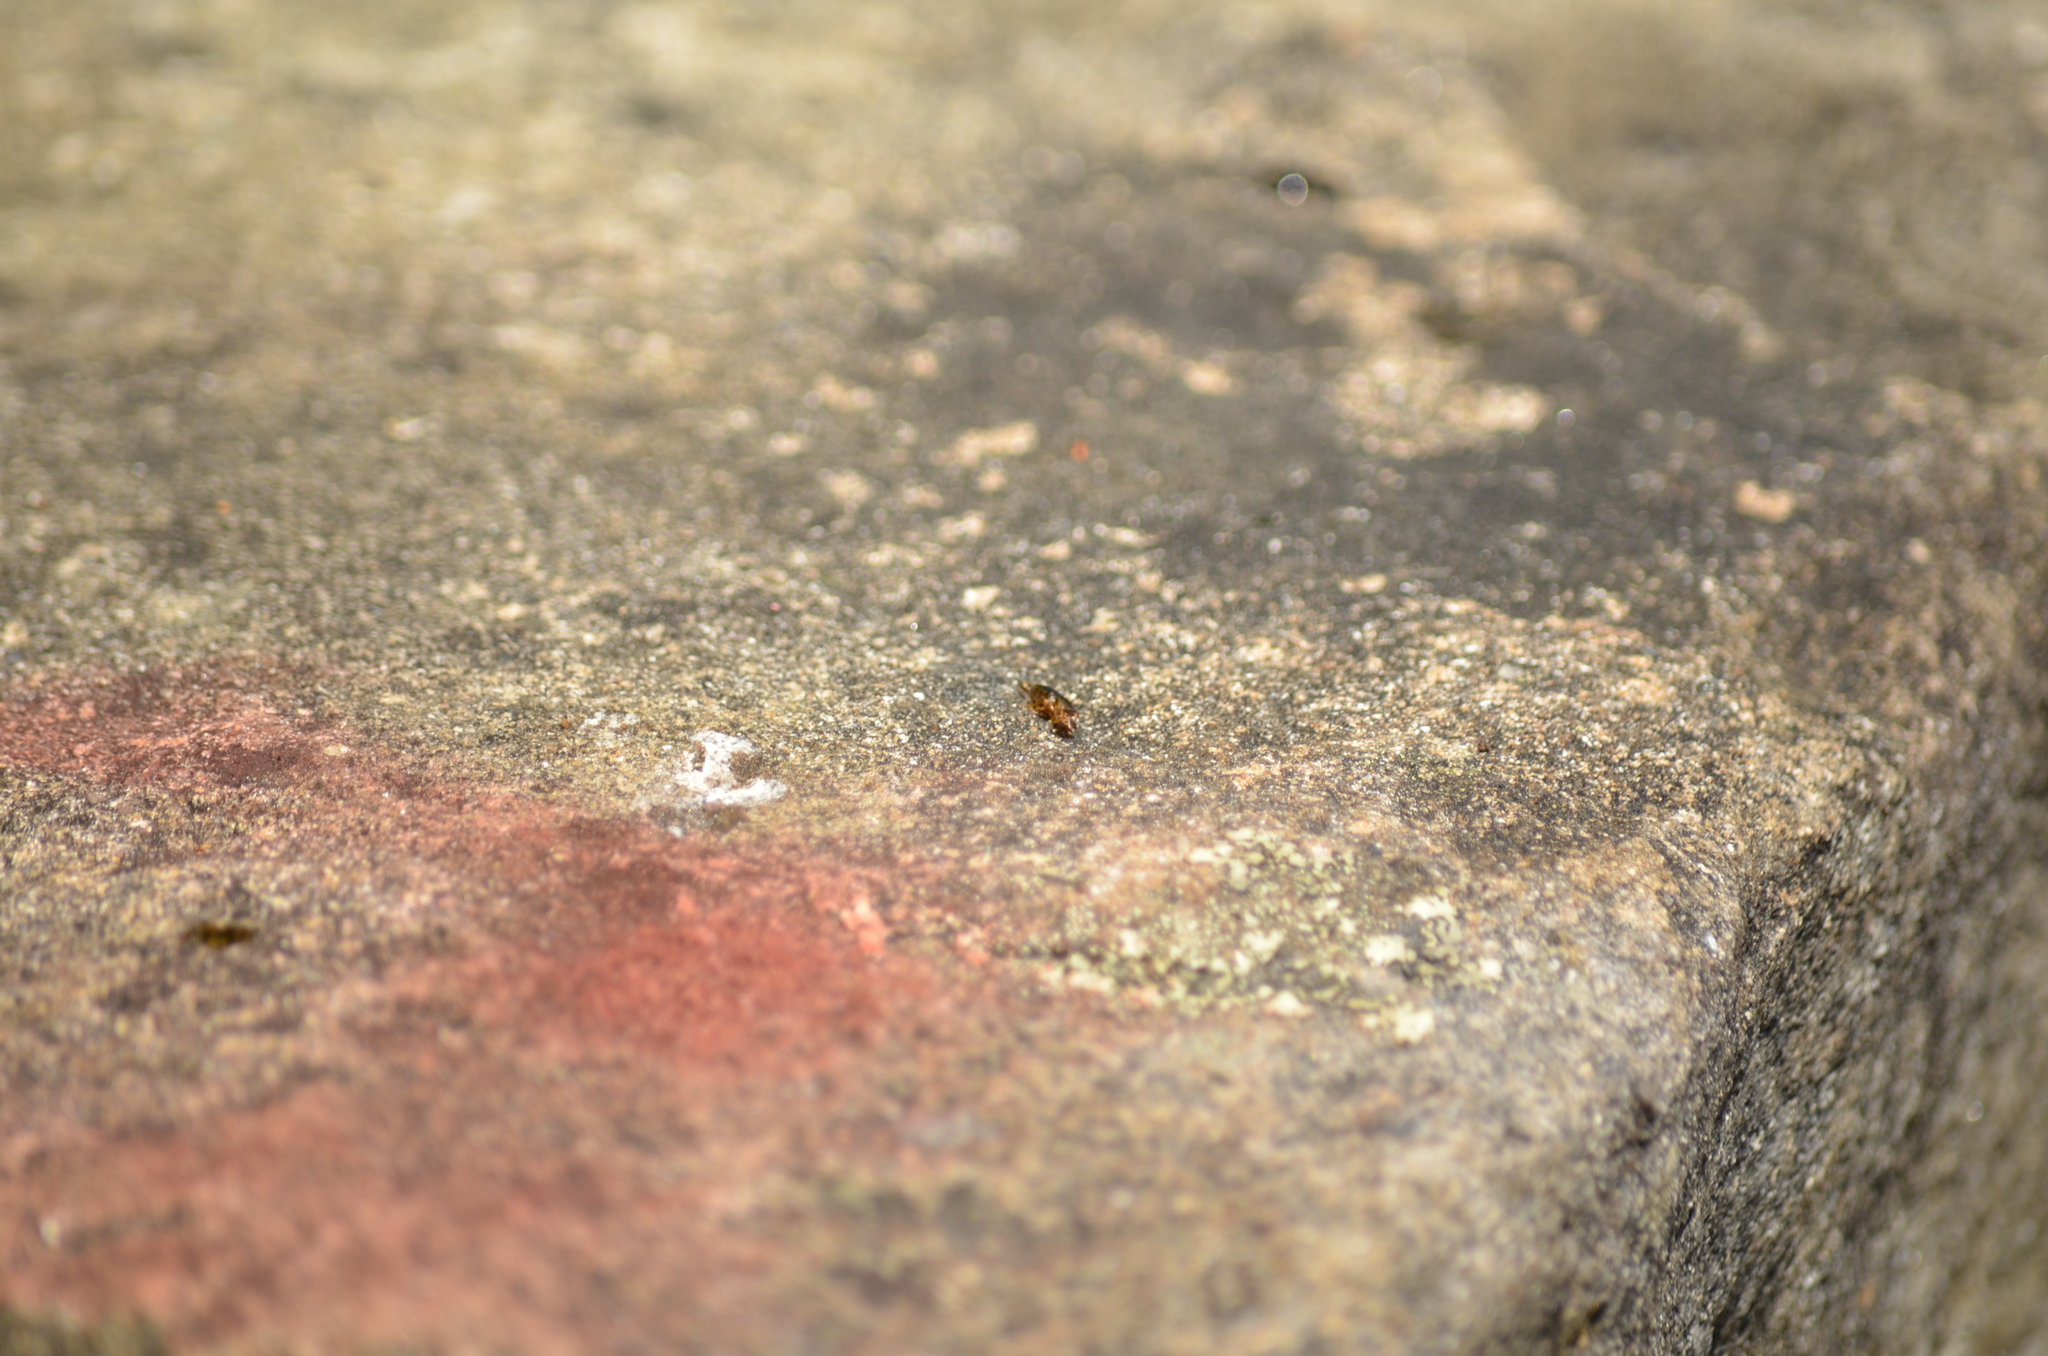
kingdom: Animalia
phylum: Arthropoda
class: Insecta
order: Dermaptera
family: Forficulidae
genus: Forficula
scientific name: Forficula
